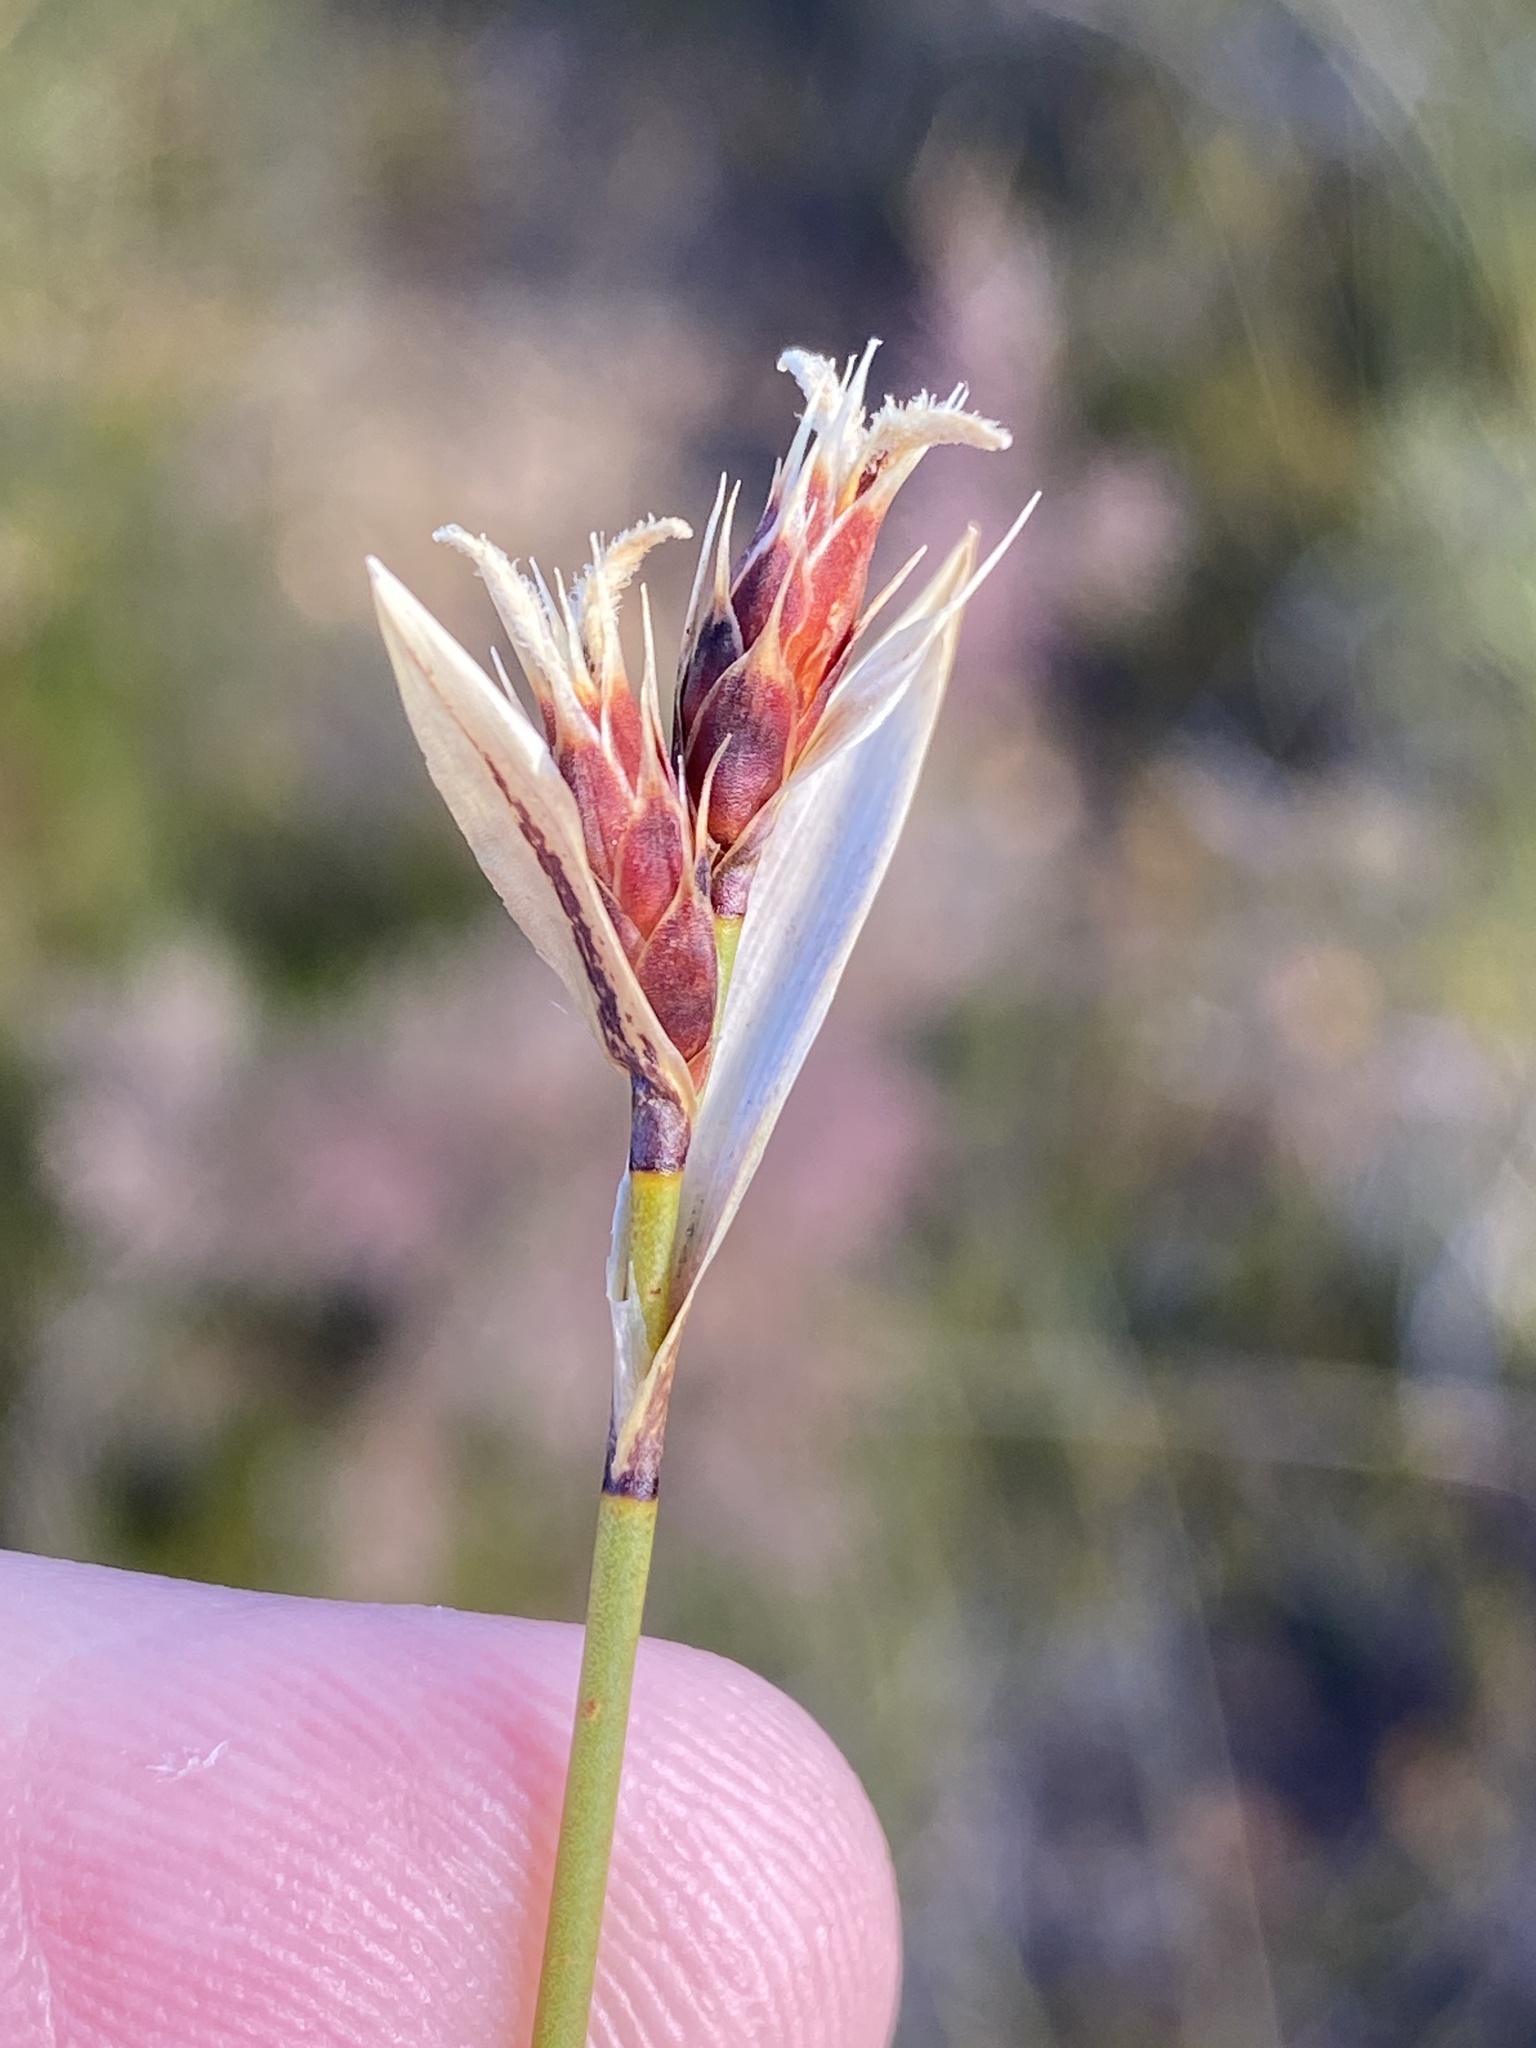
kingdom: Plantae
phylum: Tracheophyta
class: Liliopsida
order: Poales
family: Restionaceae
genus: Hypodiscus
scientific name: Hypodiscus alboaristatus
